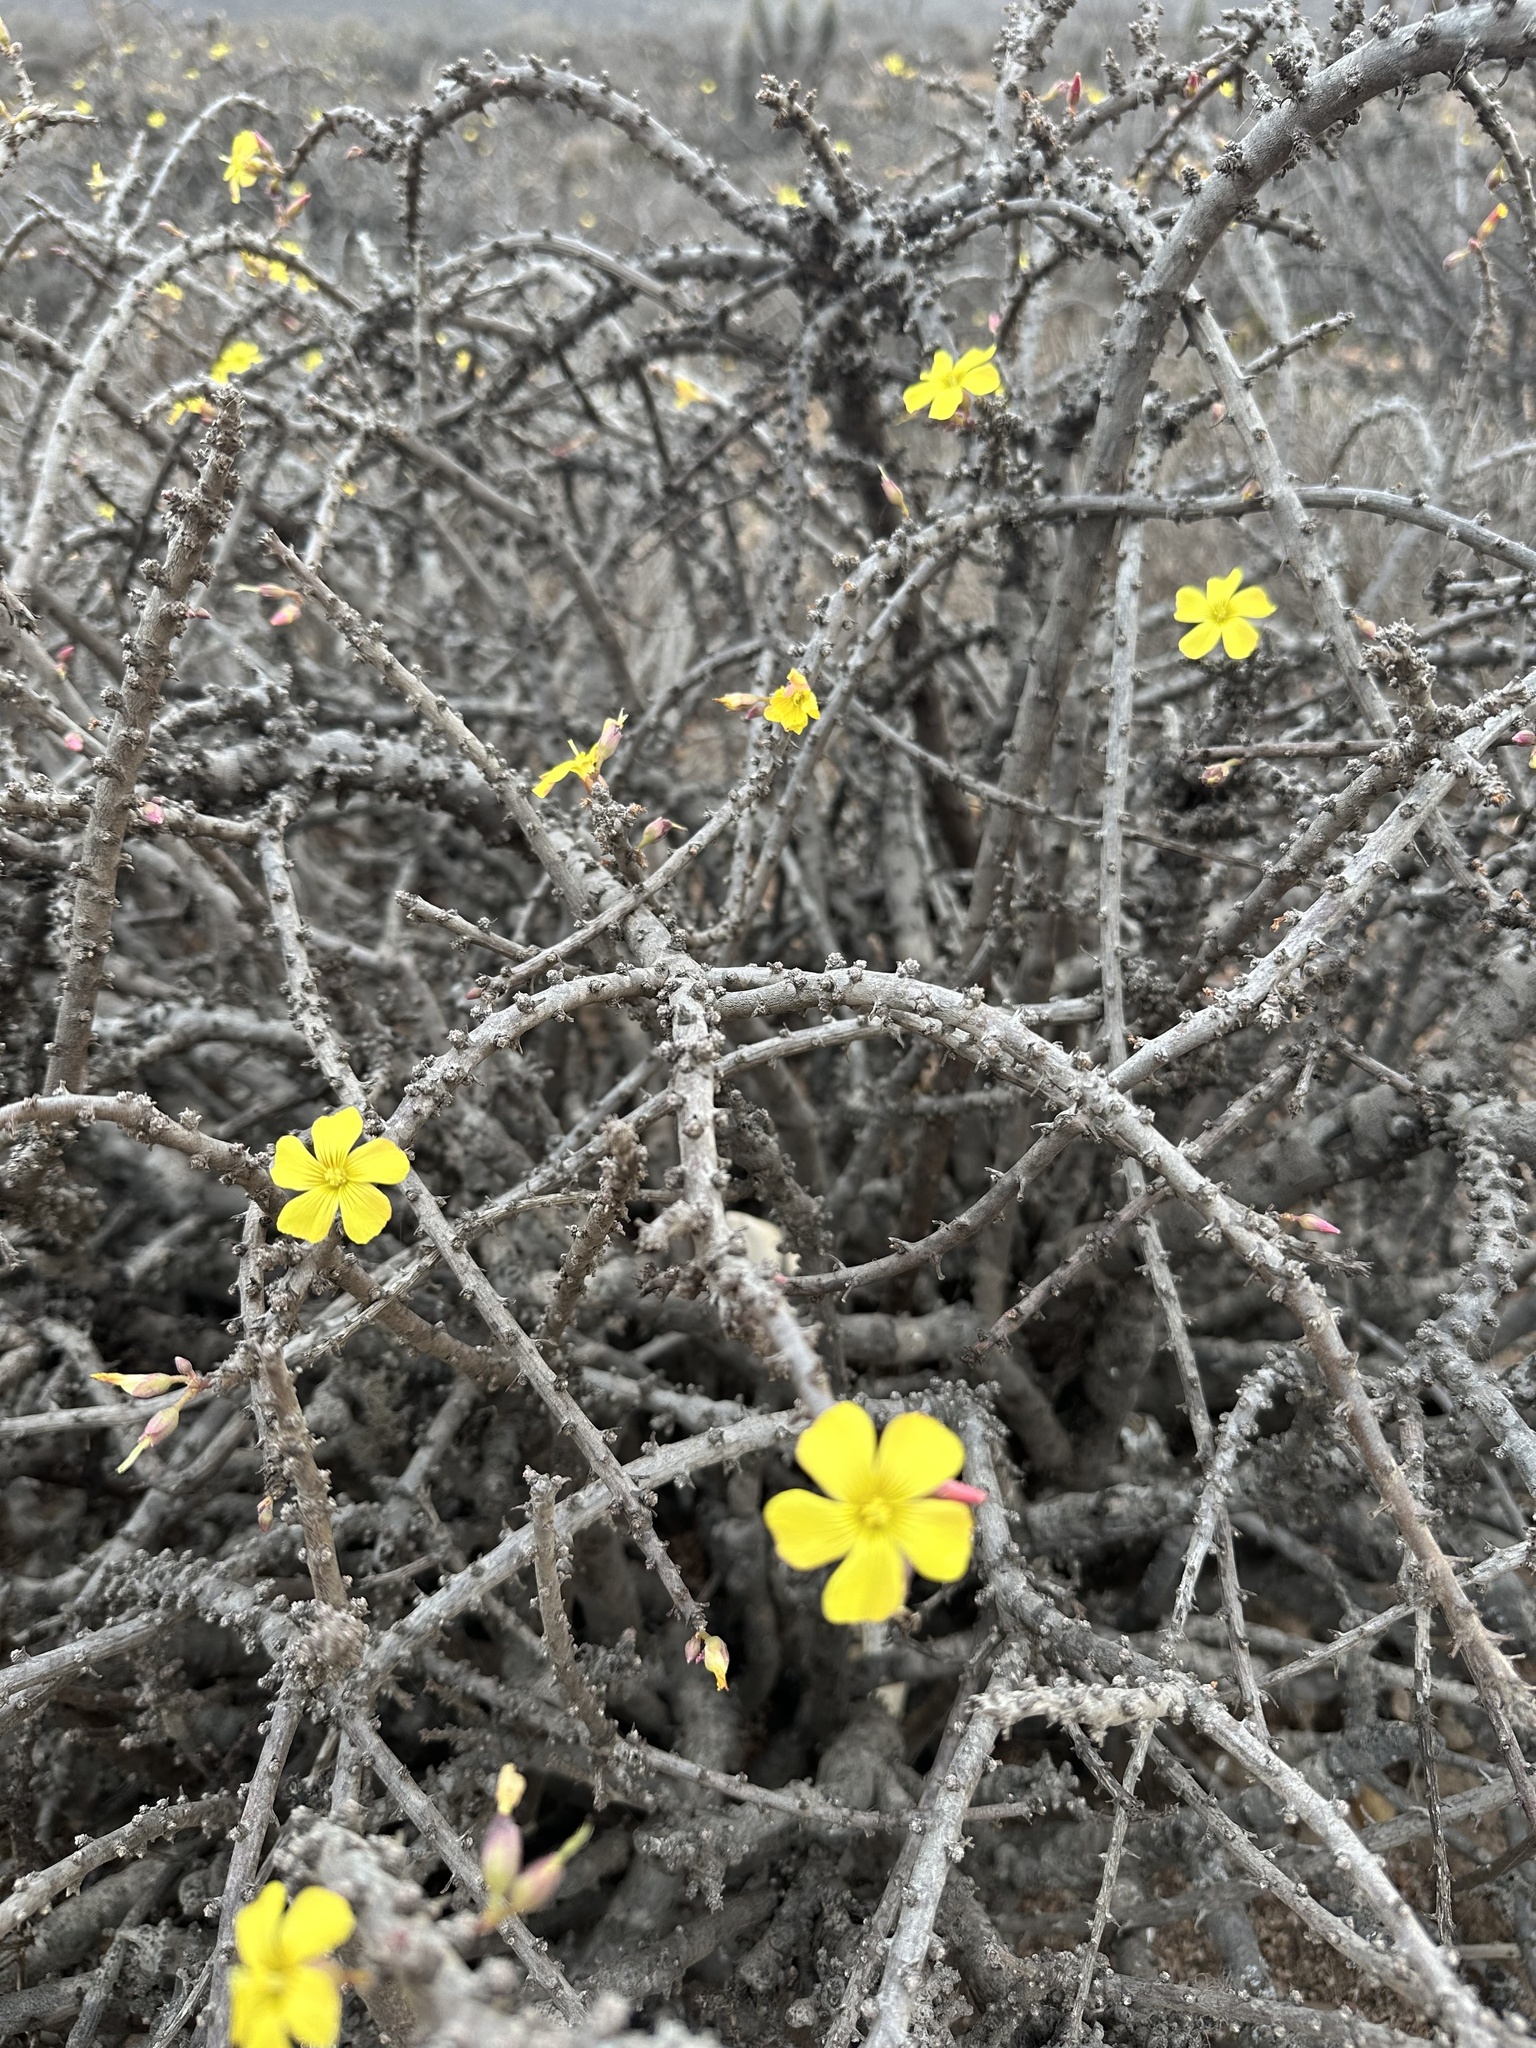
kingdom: Plantae
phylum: Tracheophyta
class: Magnoliopsida
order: Oxalidales
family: Oxalidaceae
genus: Oxalis
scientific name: Oxalis gigantea
